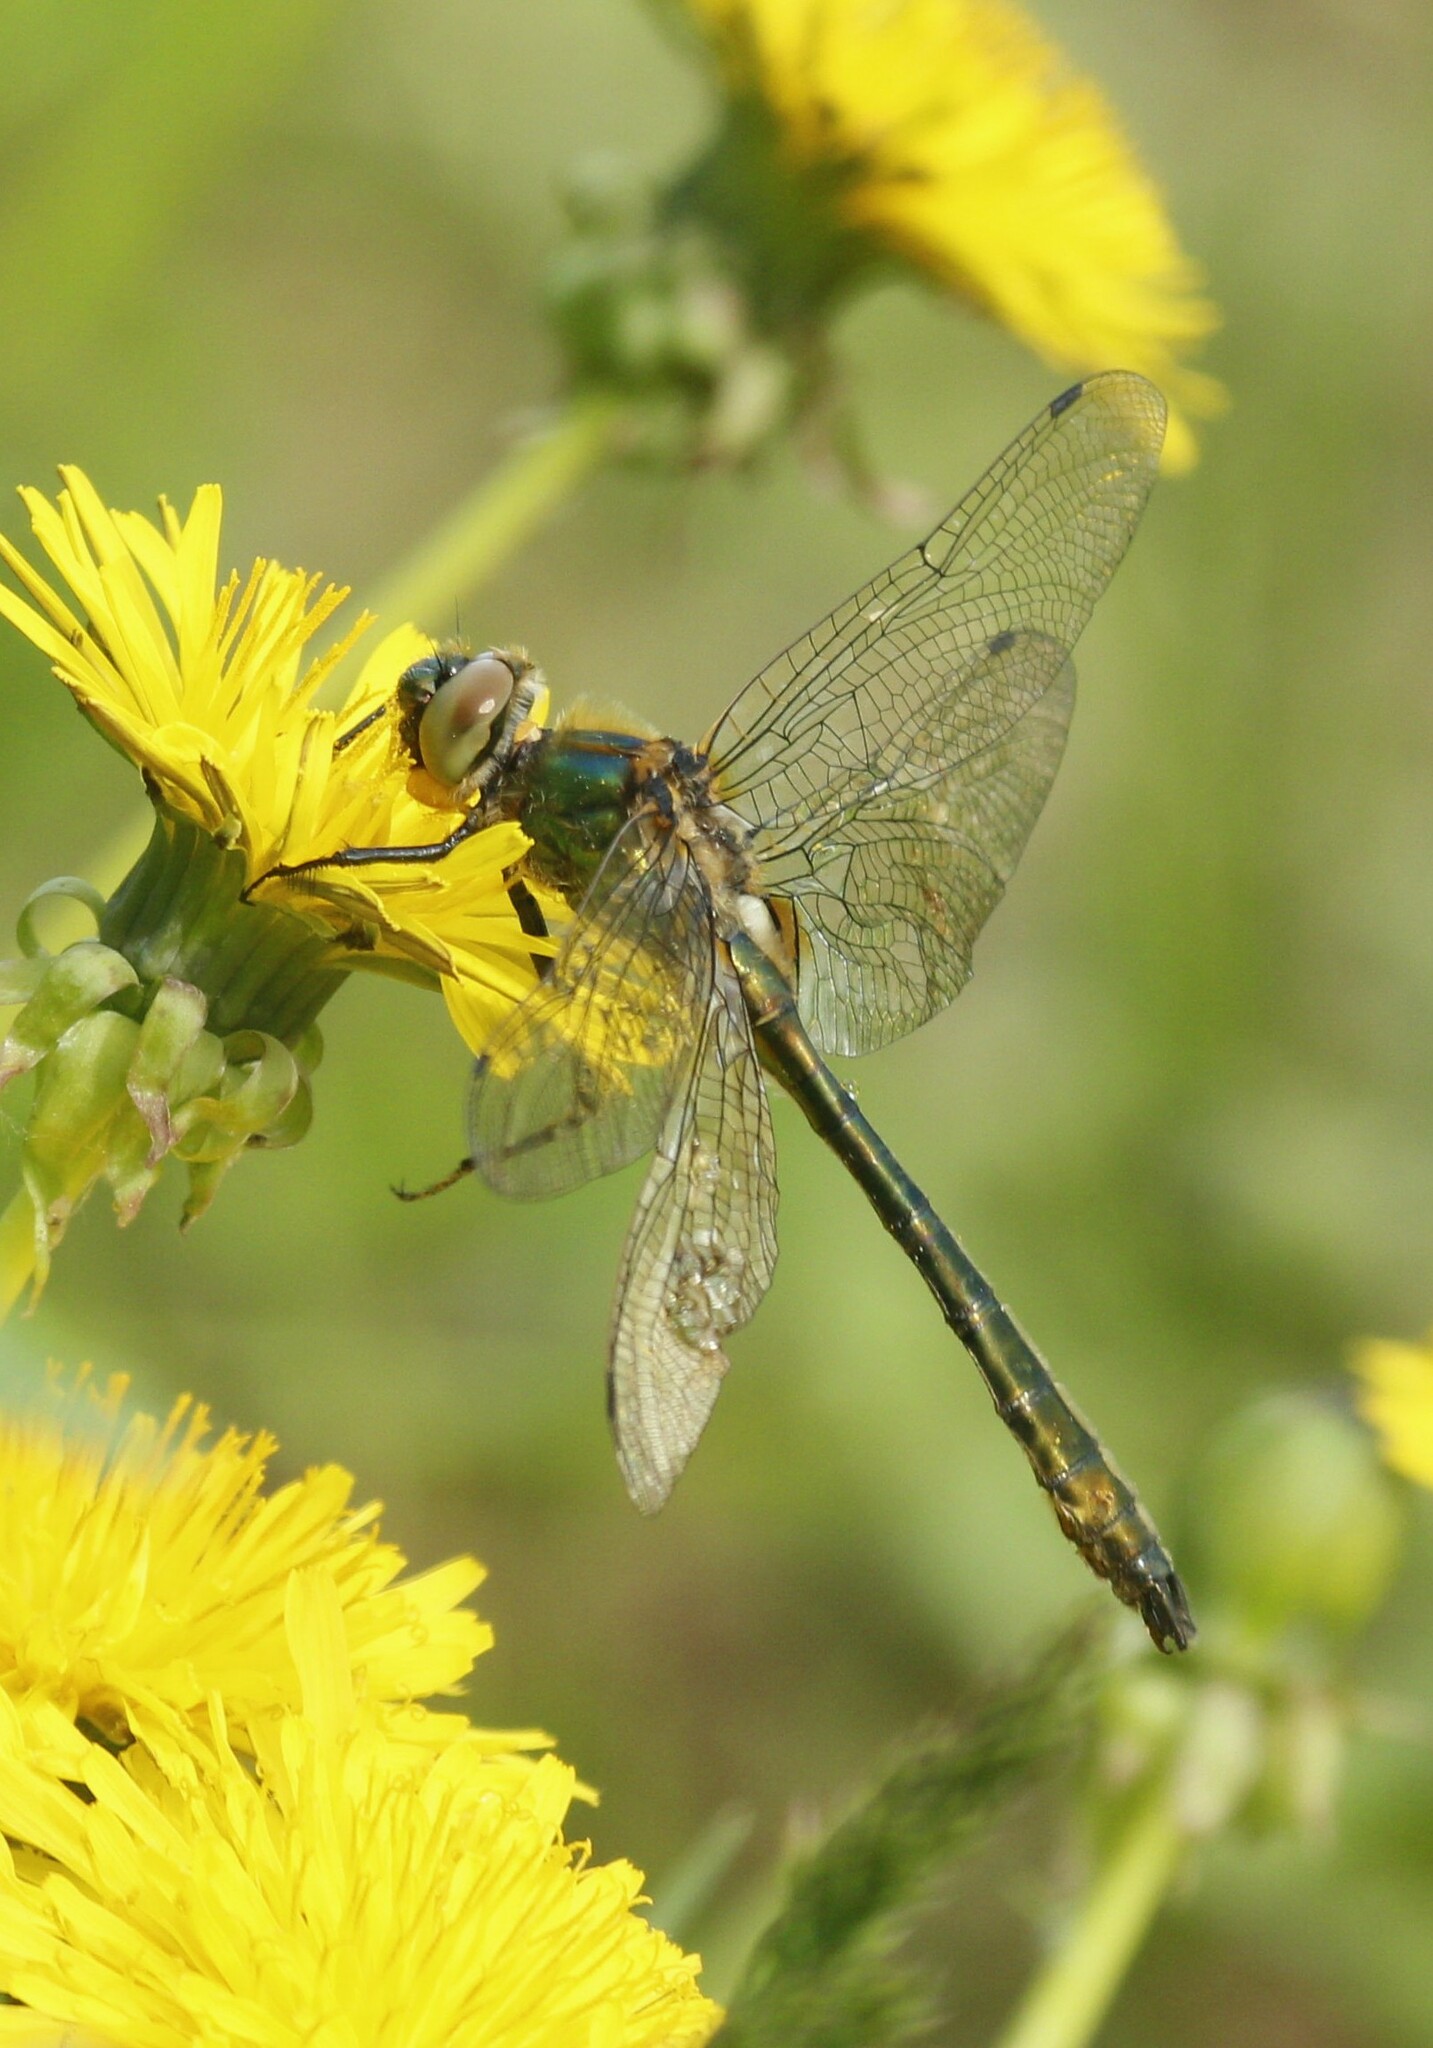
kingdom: Animalia
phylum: Arthropoda
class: Insecta
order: Odonata
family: Corduliidae
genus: Cordulia
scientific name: Cordulia aenea
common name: Downy emerald
